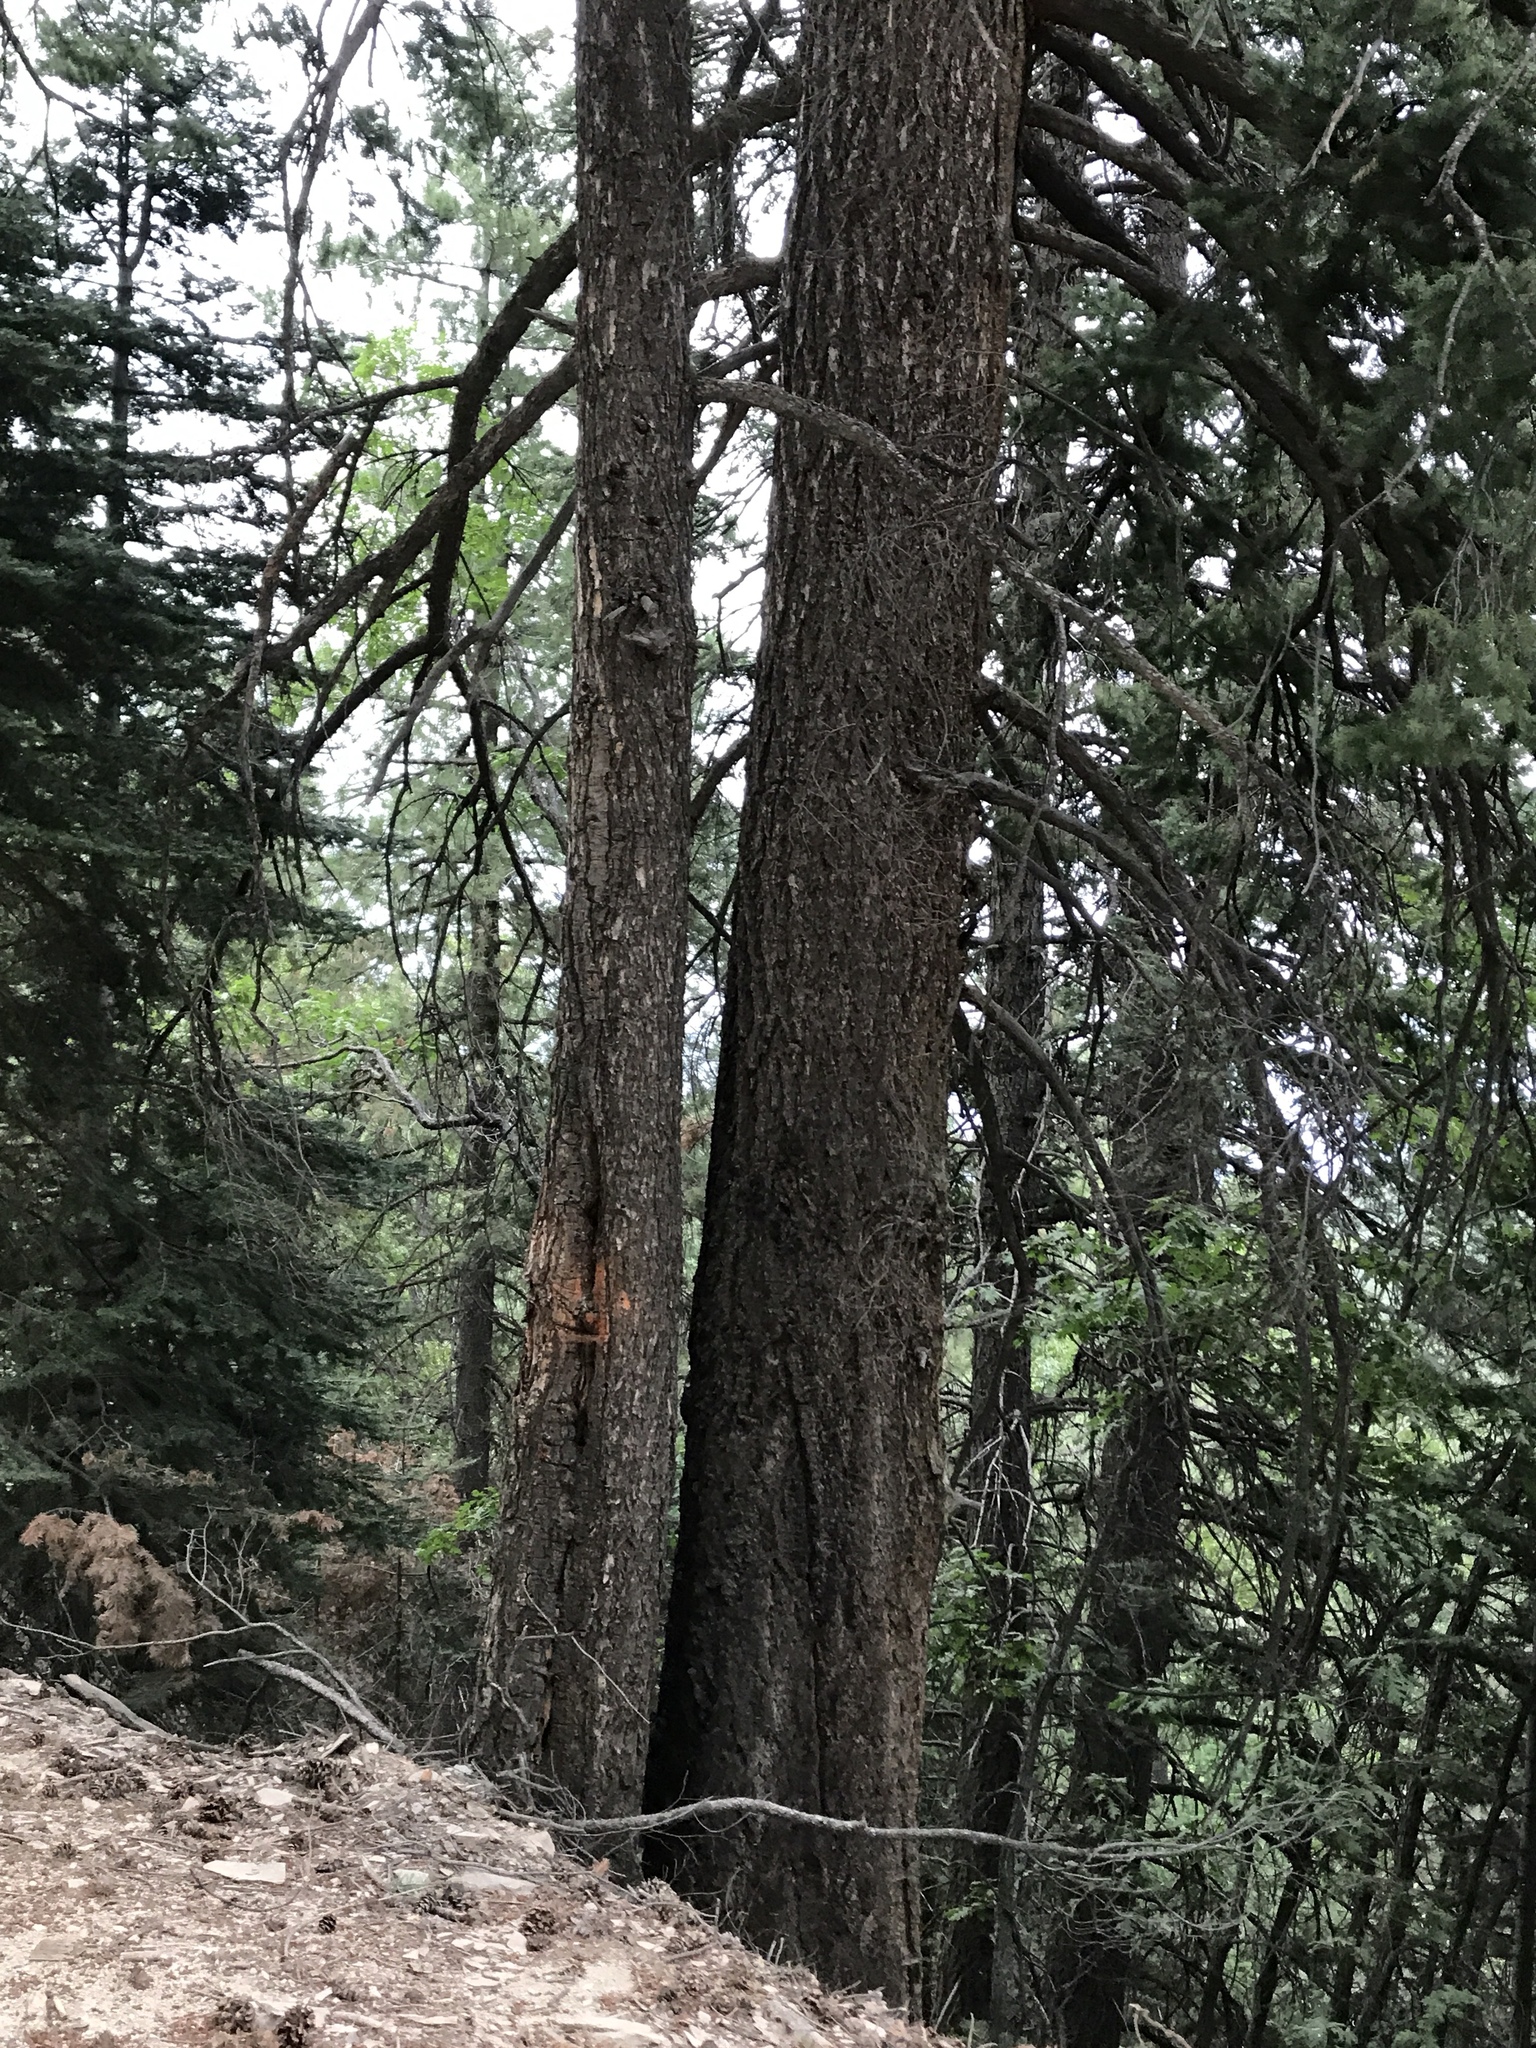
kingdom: Plantae
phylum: Tracheophyta
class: Pinopsida
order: Pinales
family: Pinaceae
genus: Pseudotsuga
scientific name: Pseudotsuga menziesii
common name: Douglas fir
